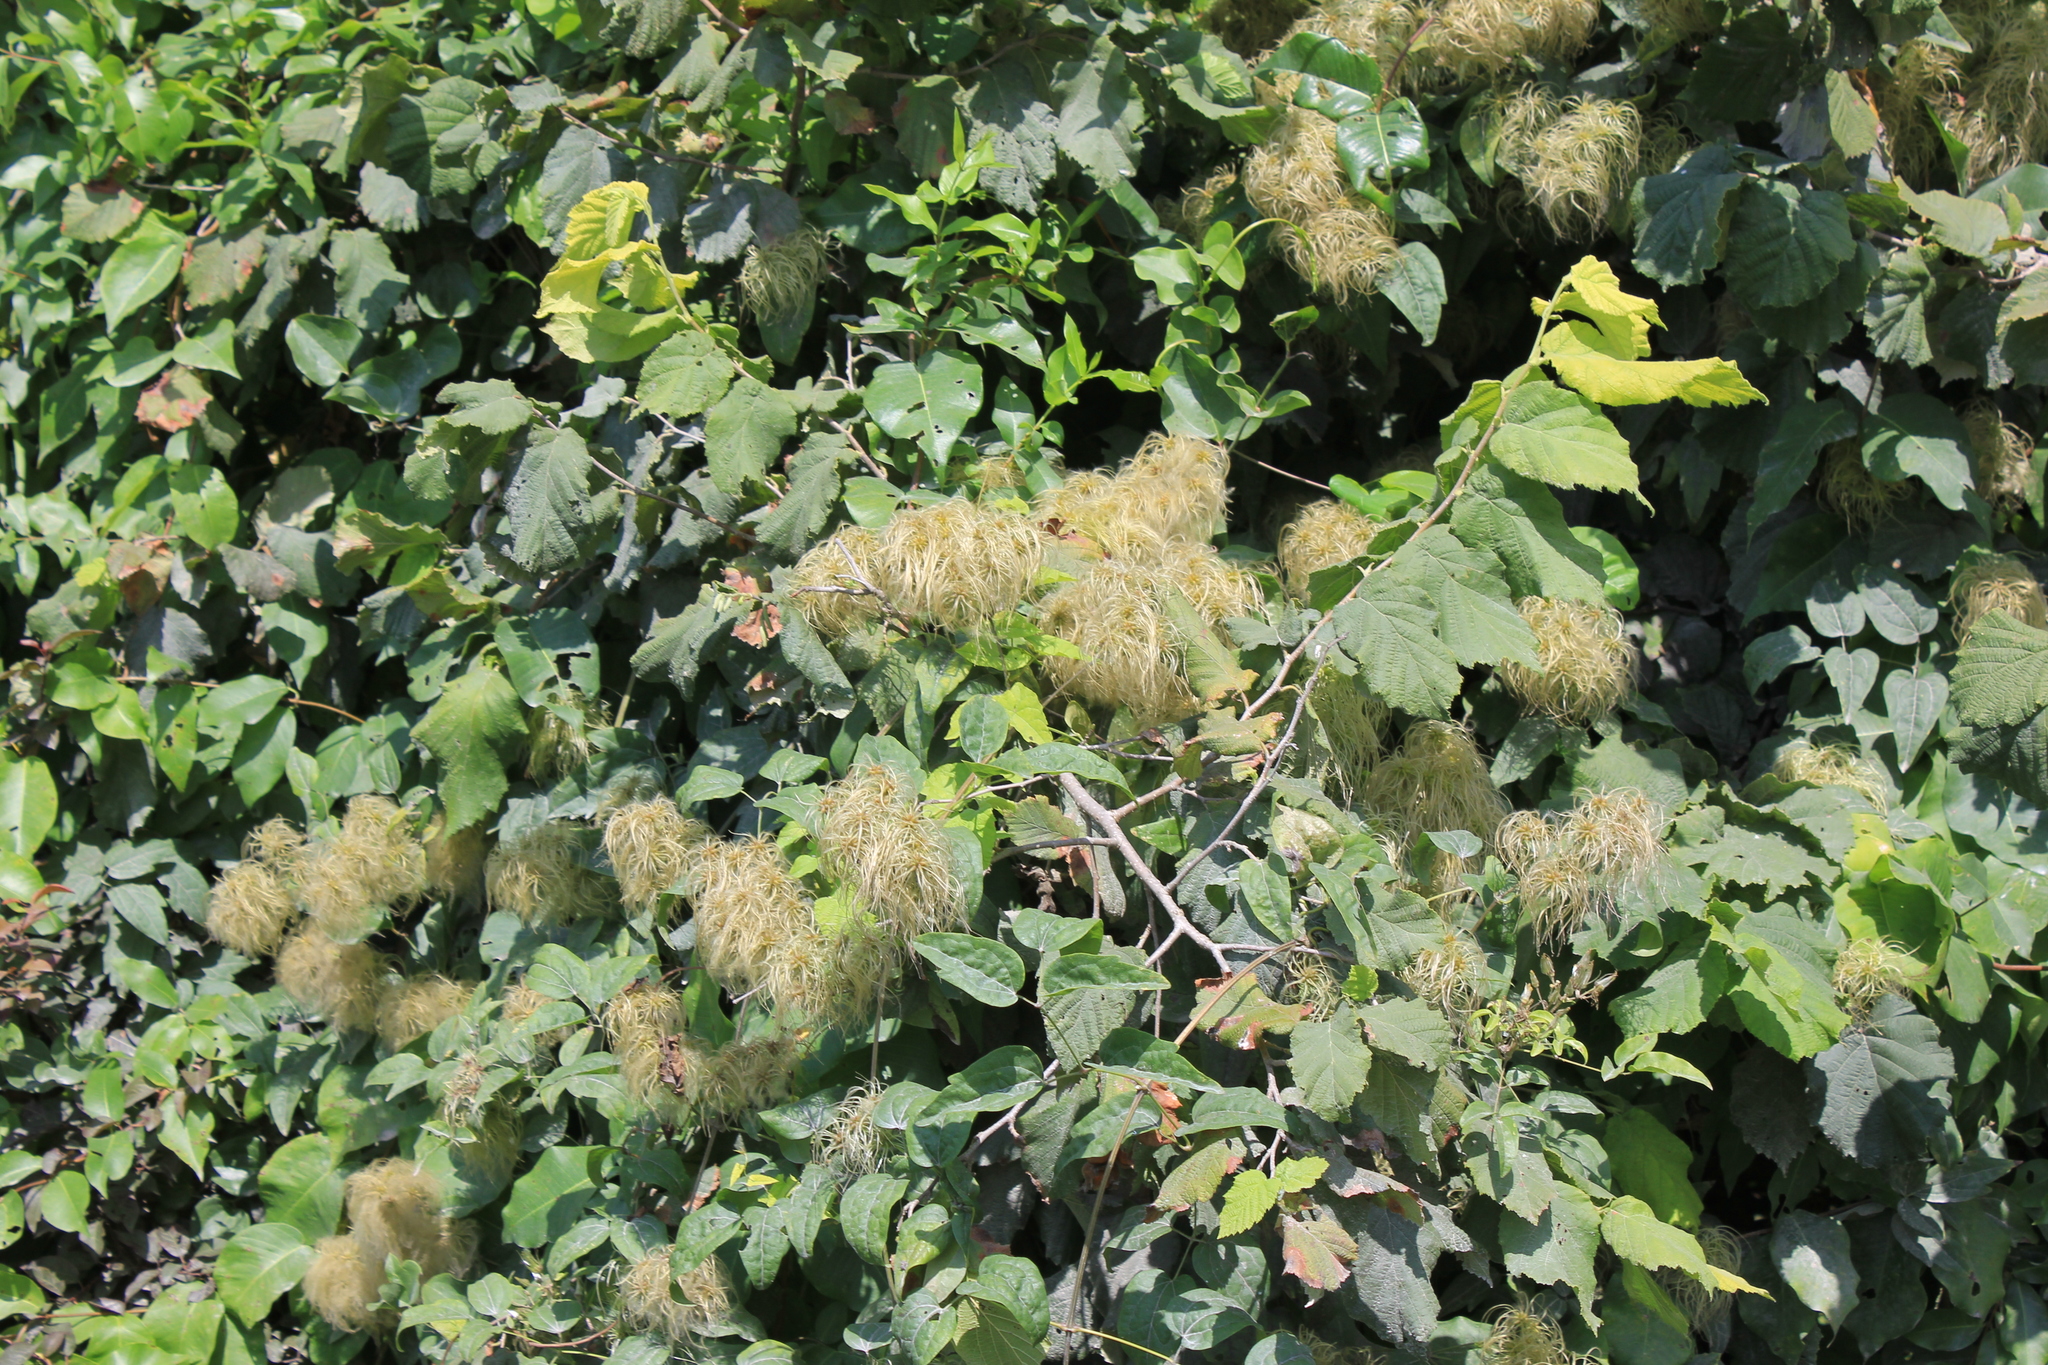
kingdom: Plantae
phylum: Tracheophyta
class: Magnoliopsida
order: Ranunculales
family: Ranunculaceae
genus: Clematis
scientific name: Clematis vitalba
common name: Evergreen clematis
